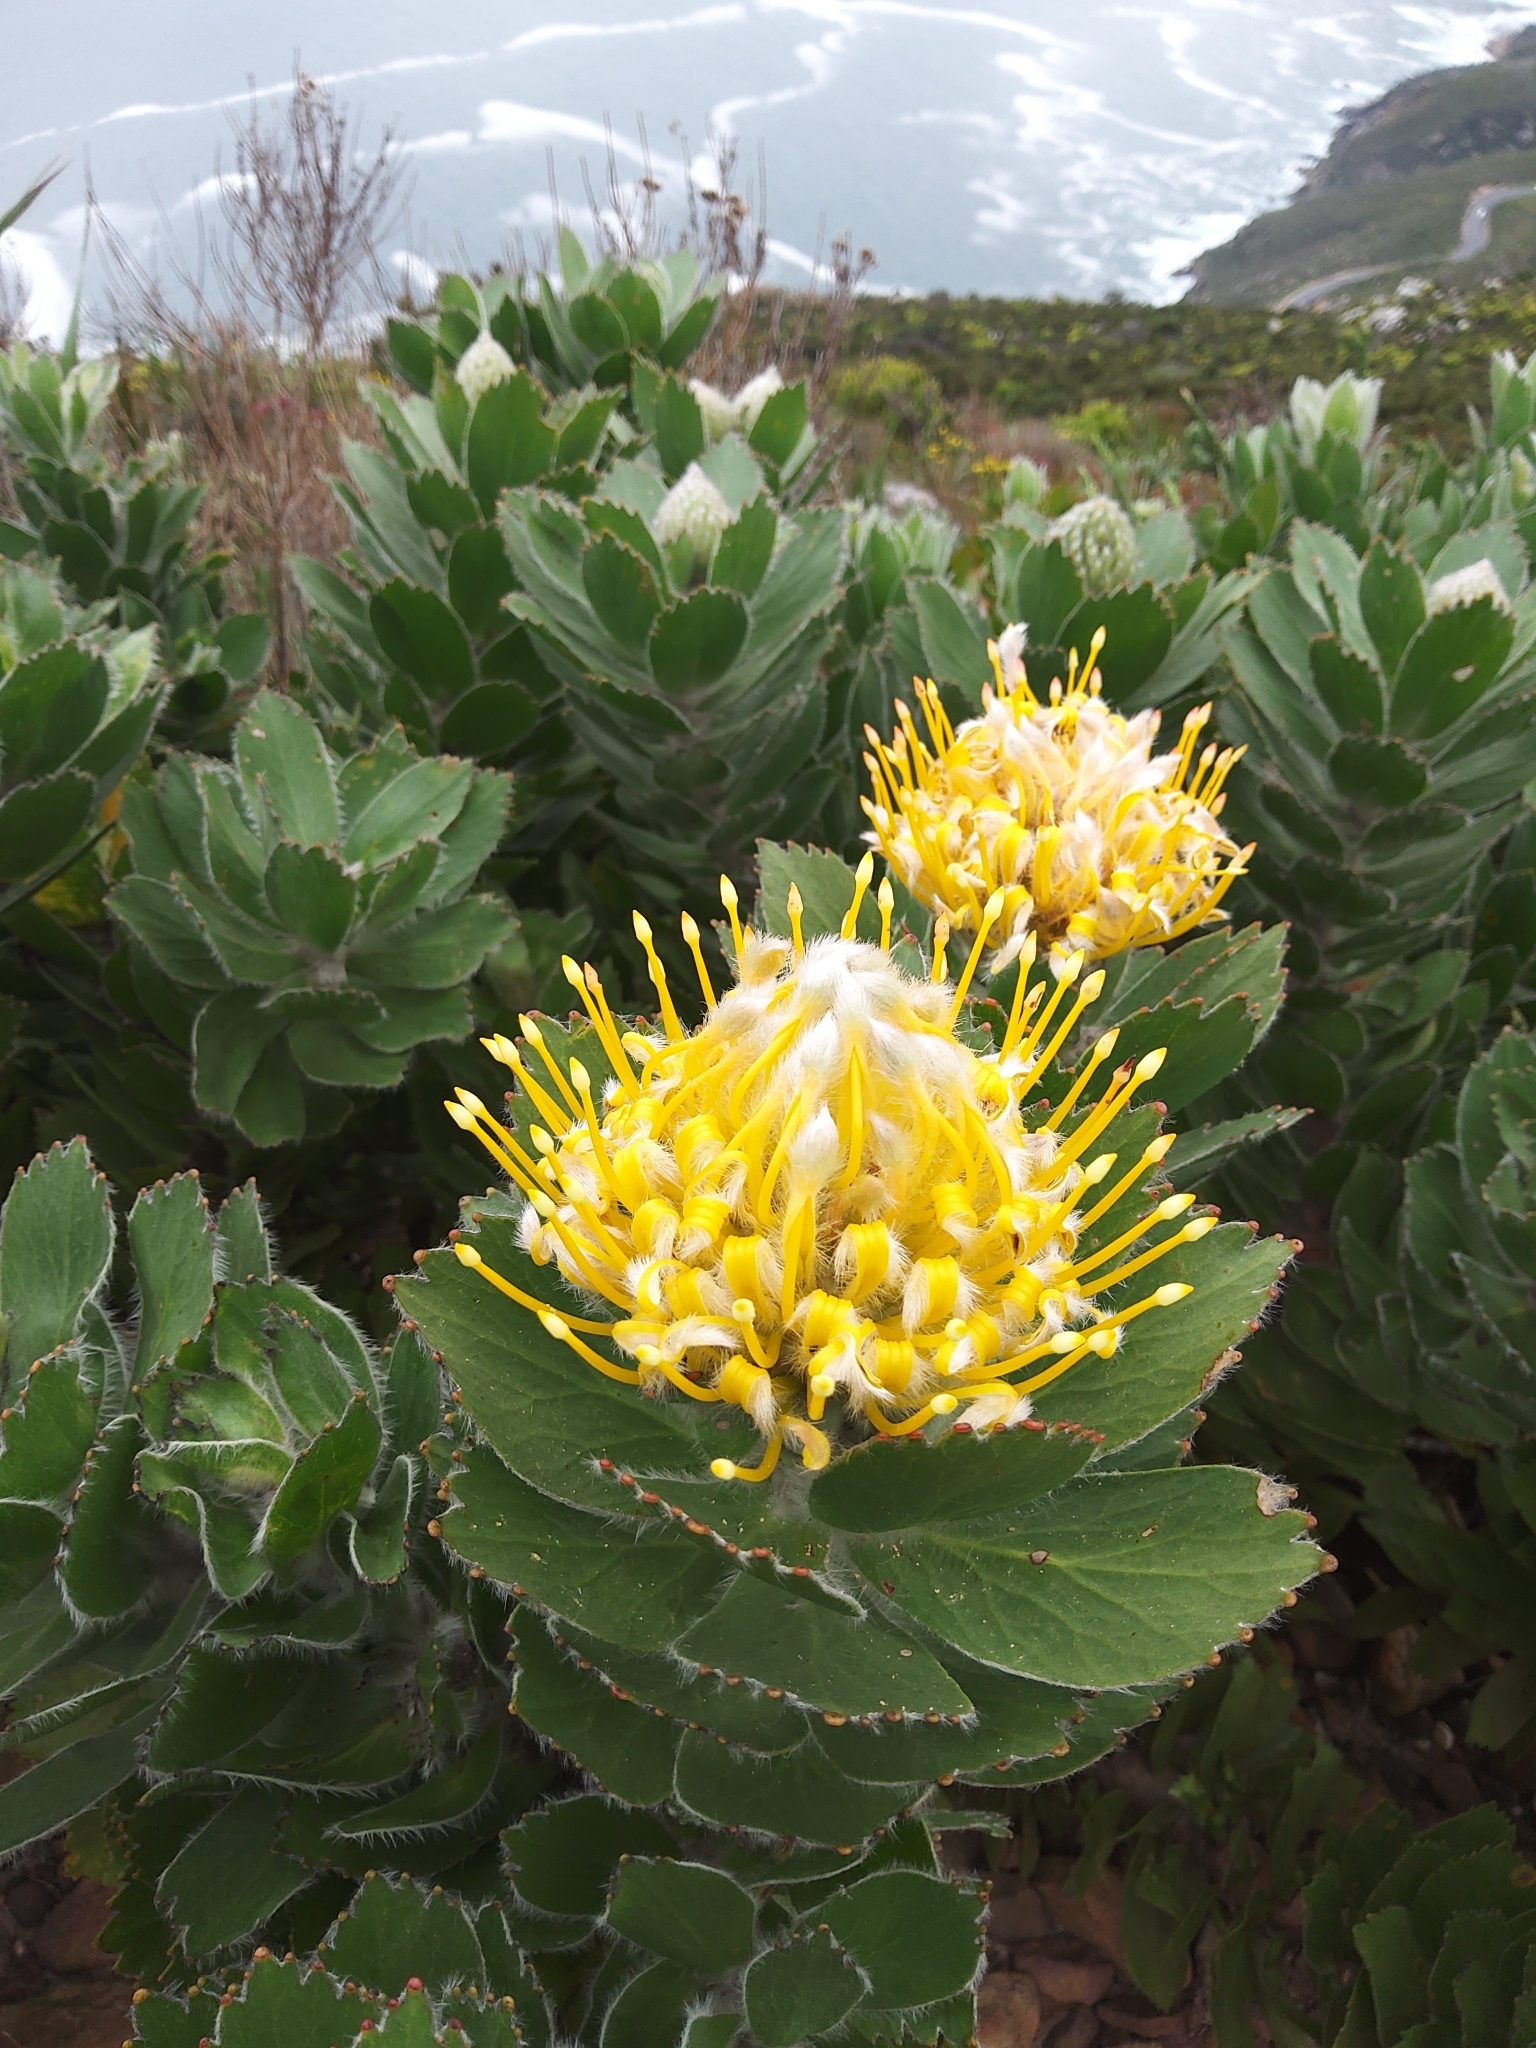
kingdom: Plantae
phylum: Tracheophyta
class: Magnoliopsida
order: Proteales
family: Proteaceae
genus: Leucospermum
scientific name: Leucospermum conocarpodendron
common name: Tree pincushion
